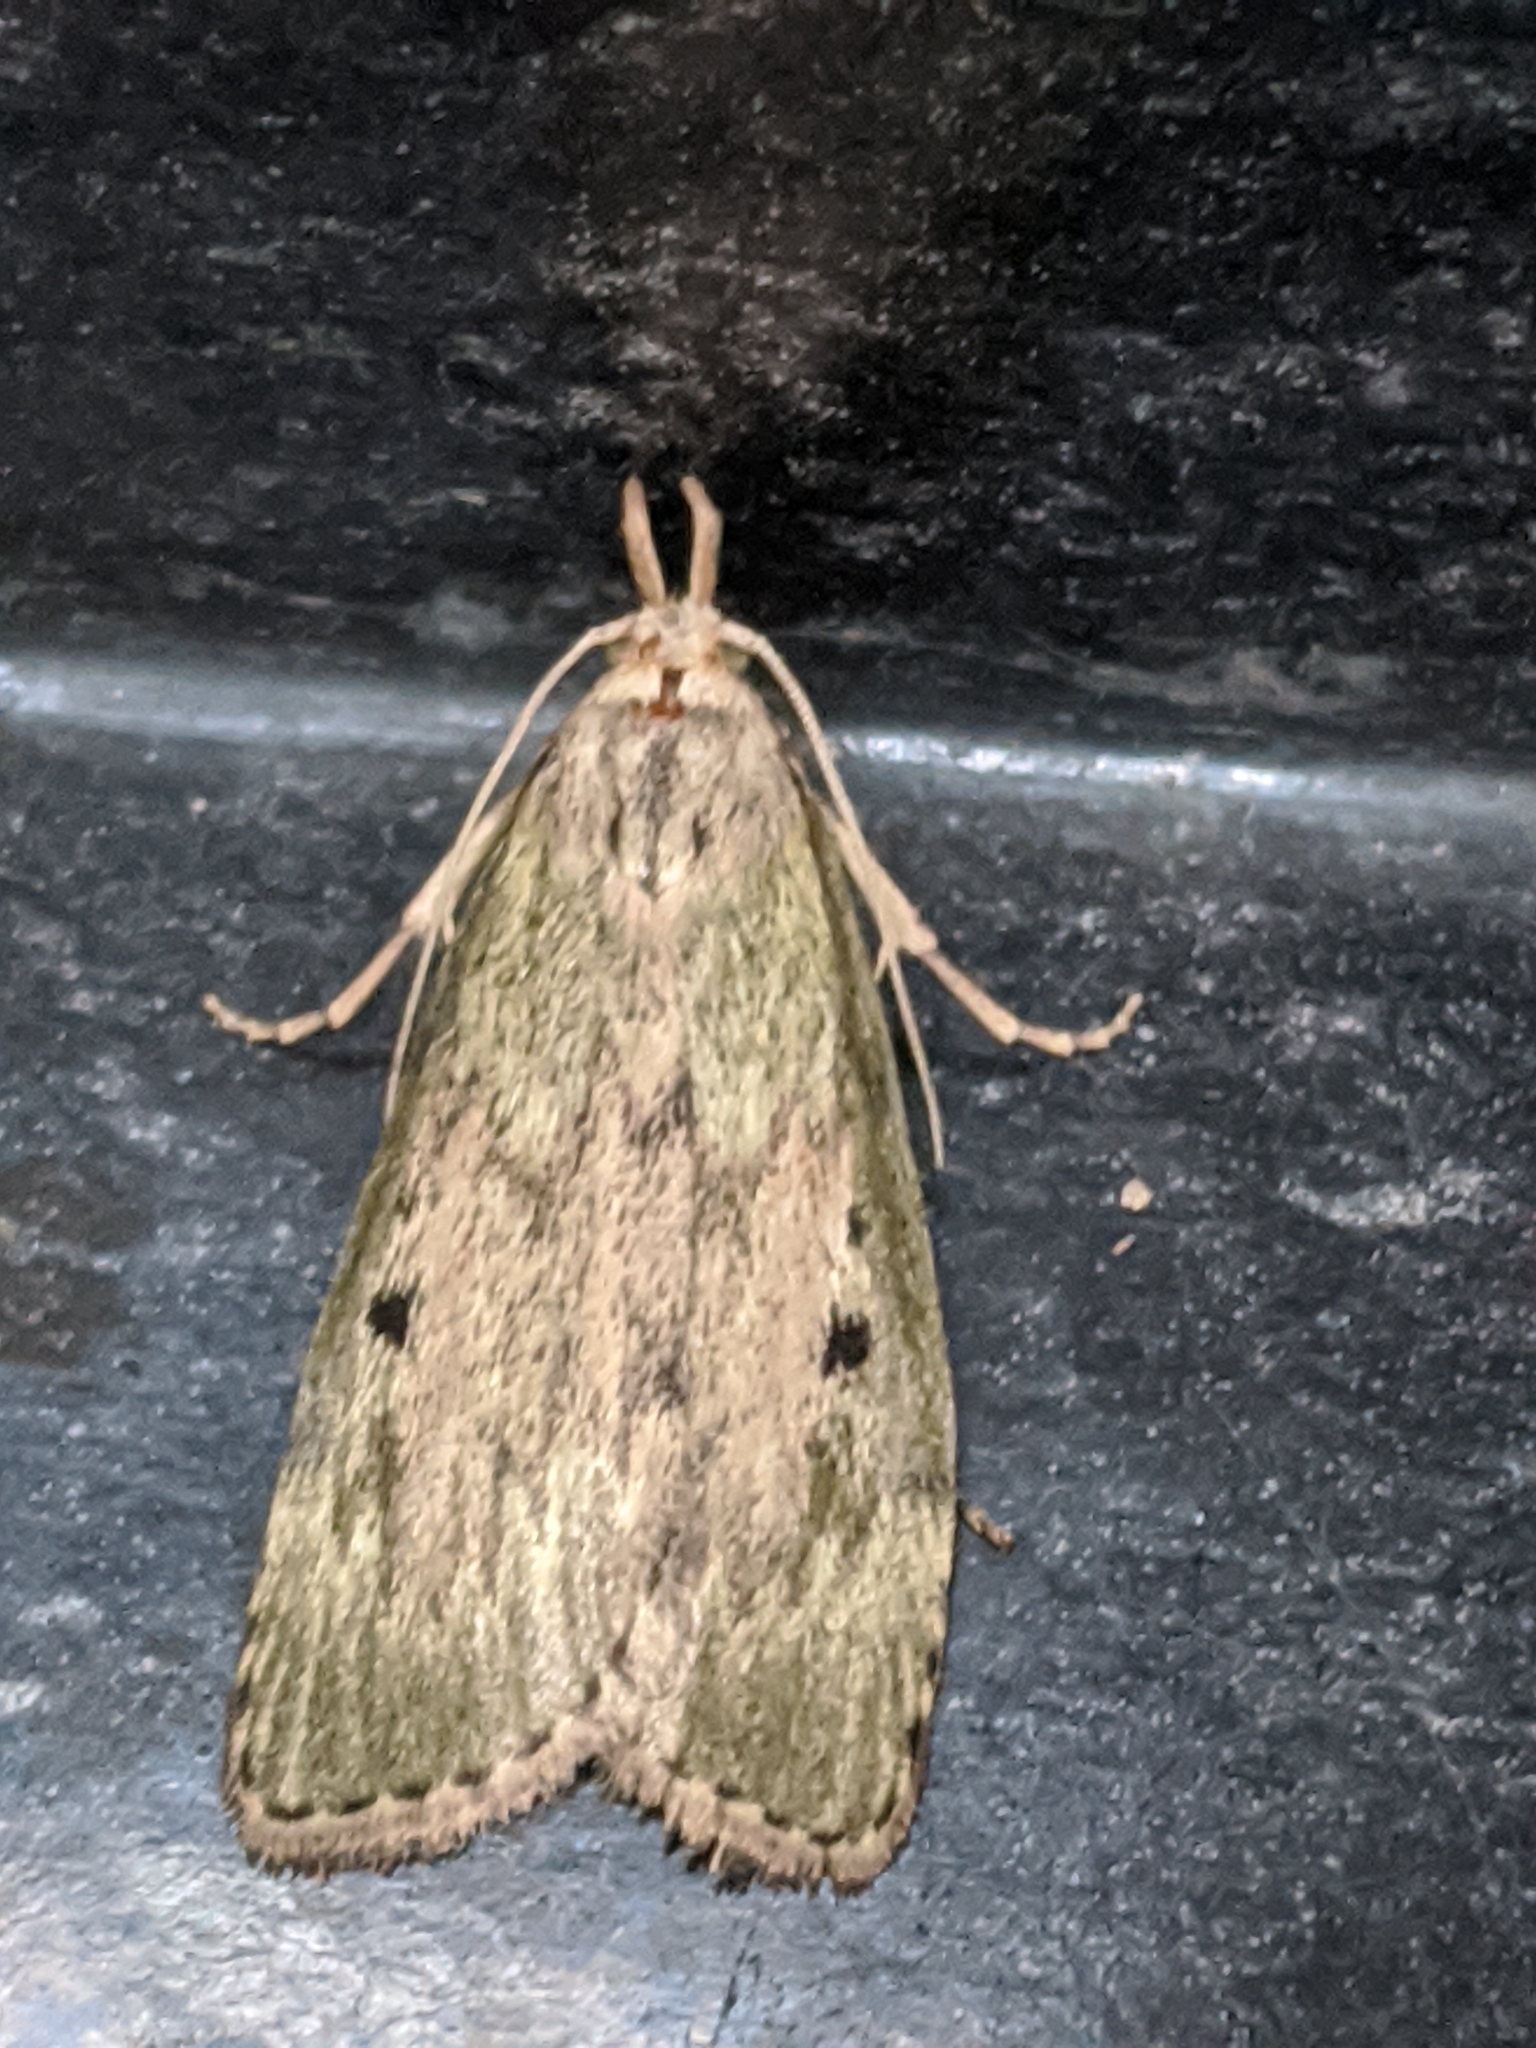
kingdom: Animalia
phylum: Arthropoda
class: Insecta
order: Lepidoptera
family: Pyralidae
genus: Aphomia
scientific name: Aphomia sociella
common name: Bee moth
